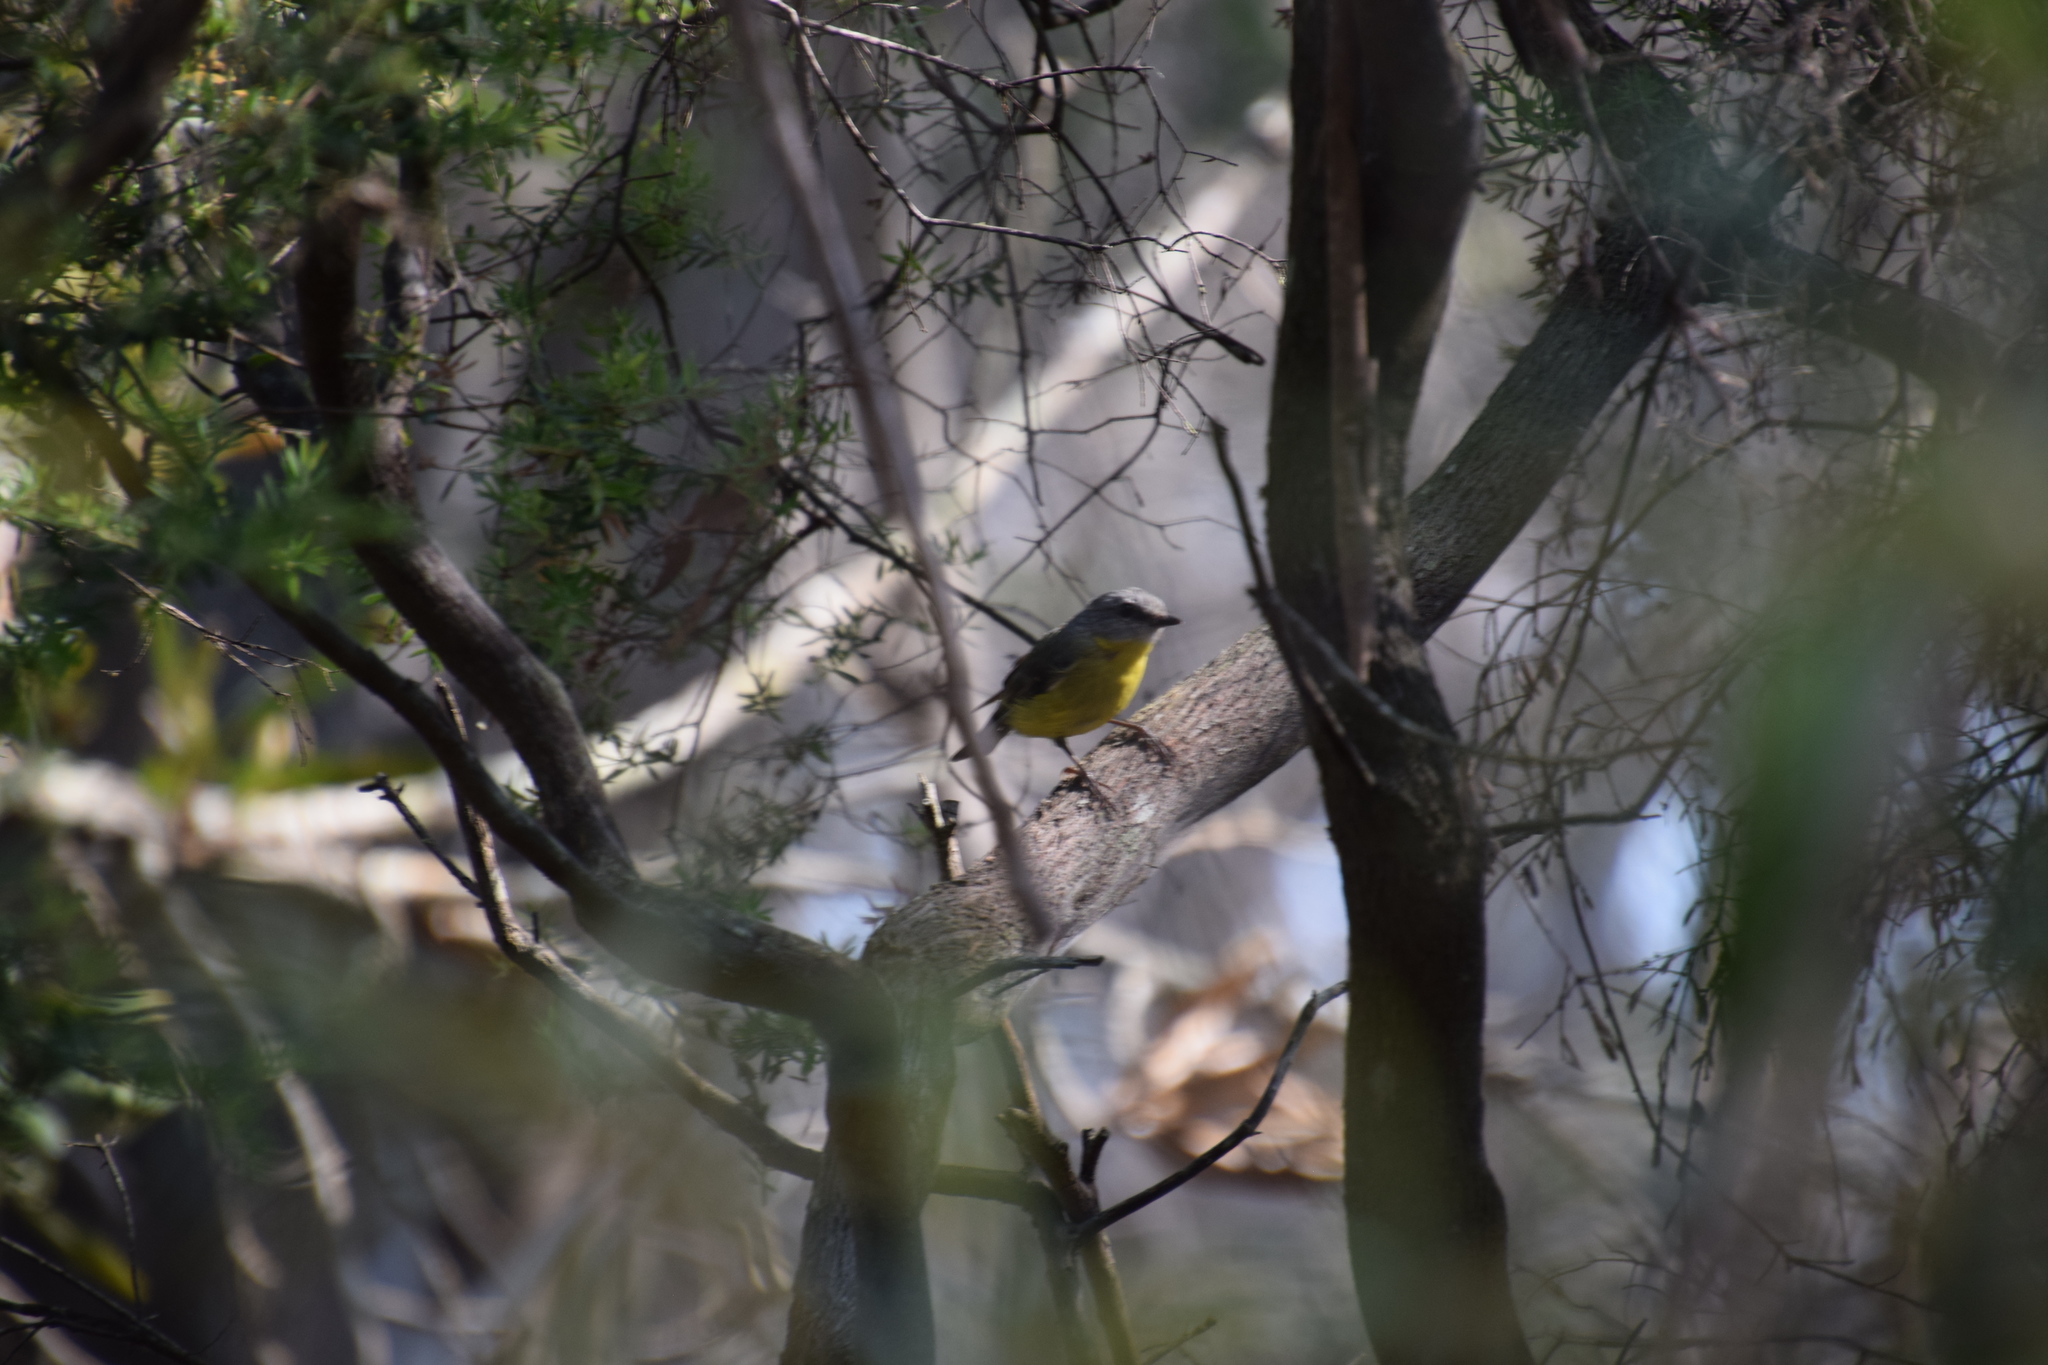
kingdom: Animalia
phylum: Chordata
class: Aves
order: Passeriformes
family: Petroicidae
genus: Eopsaltria
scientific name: Eopsaltria australis
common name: Eastern yellow robin
